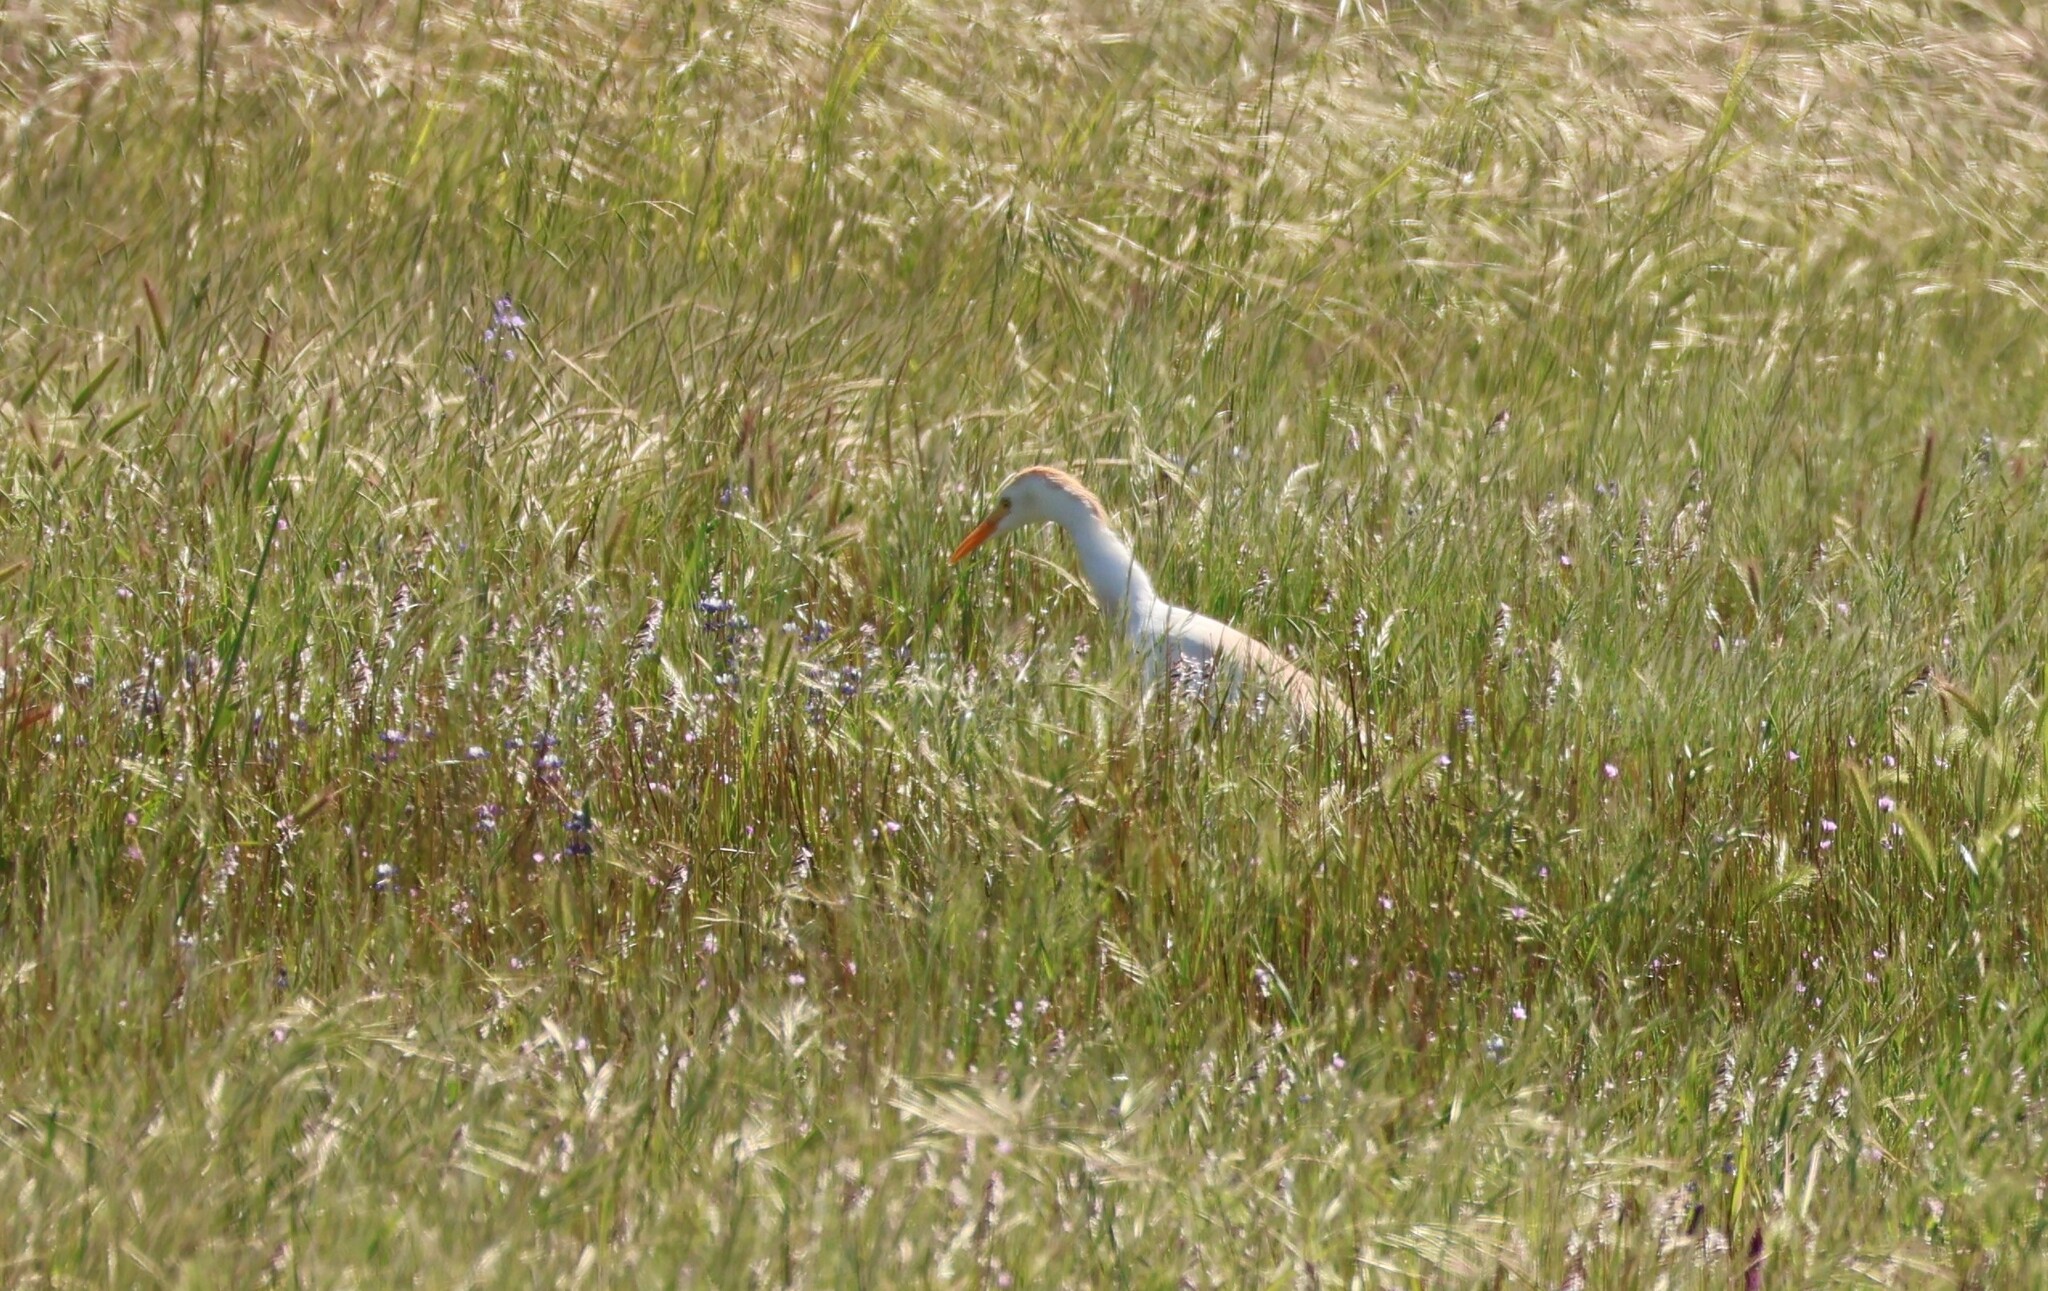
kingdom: Animalia
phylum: Chordata
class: Aves
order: Pelecaniformes
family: Ardeidae
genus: Bubulcus
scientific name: Bubulcus ibis
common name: Cattle egret
